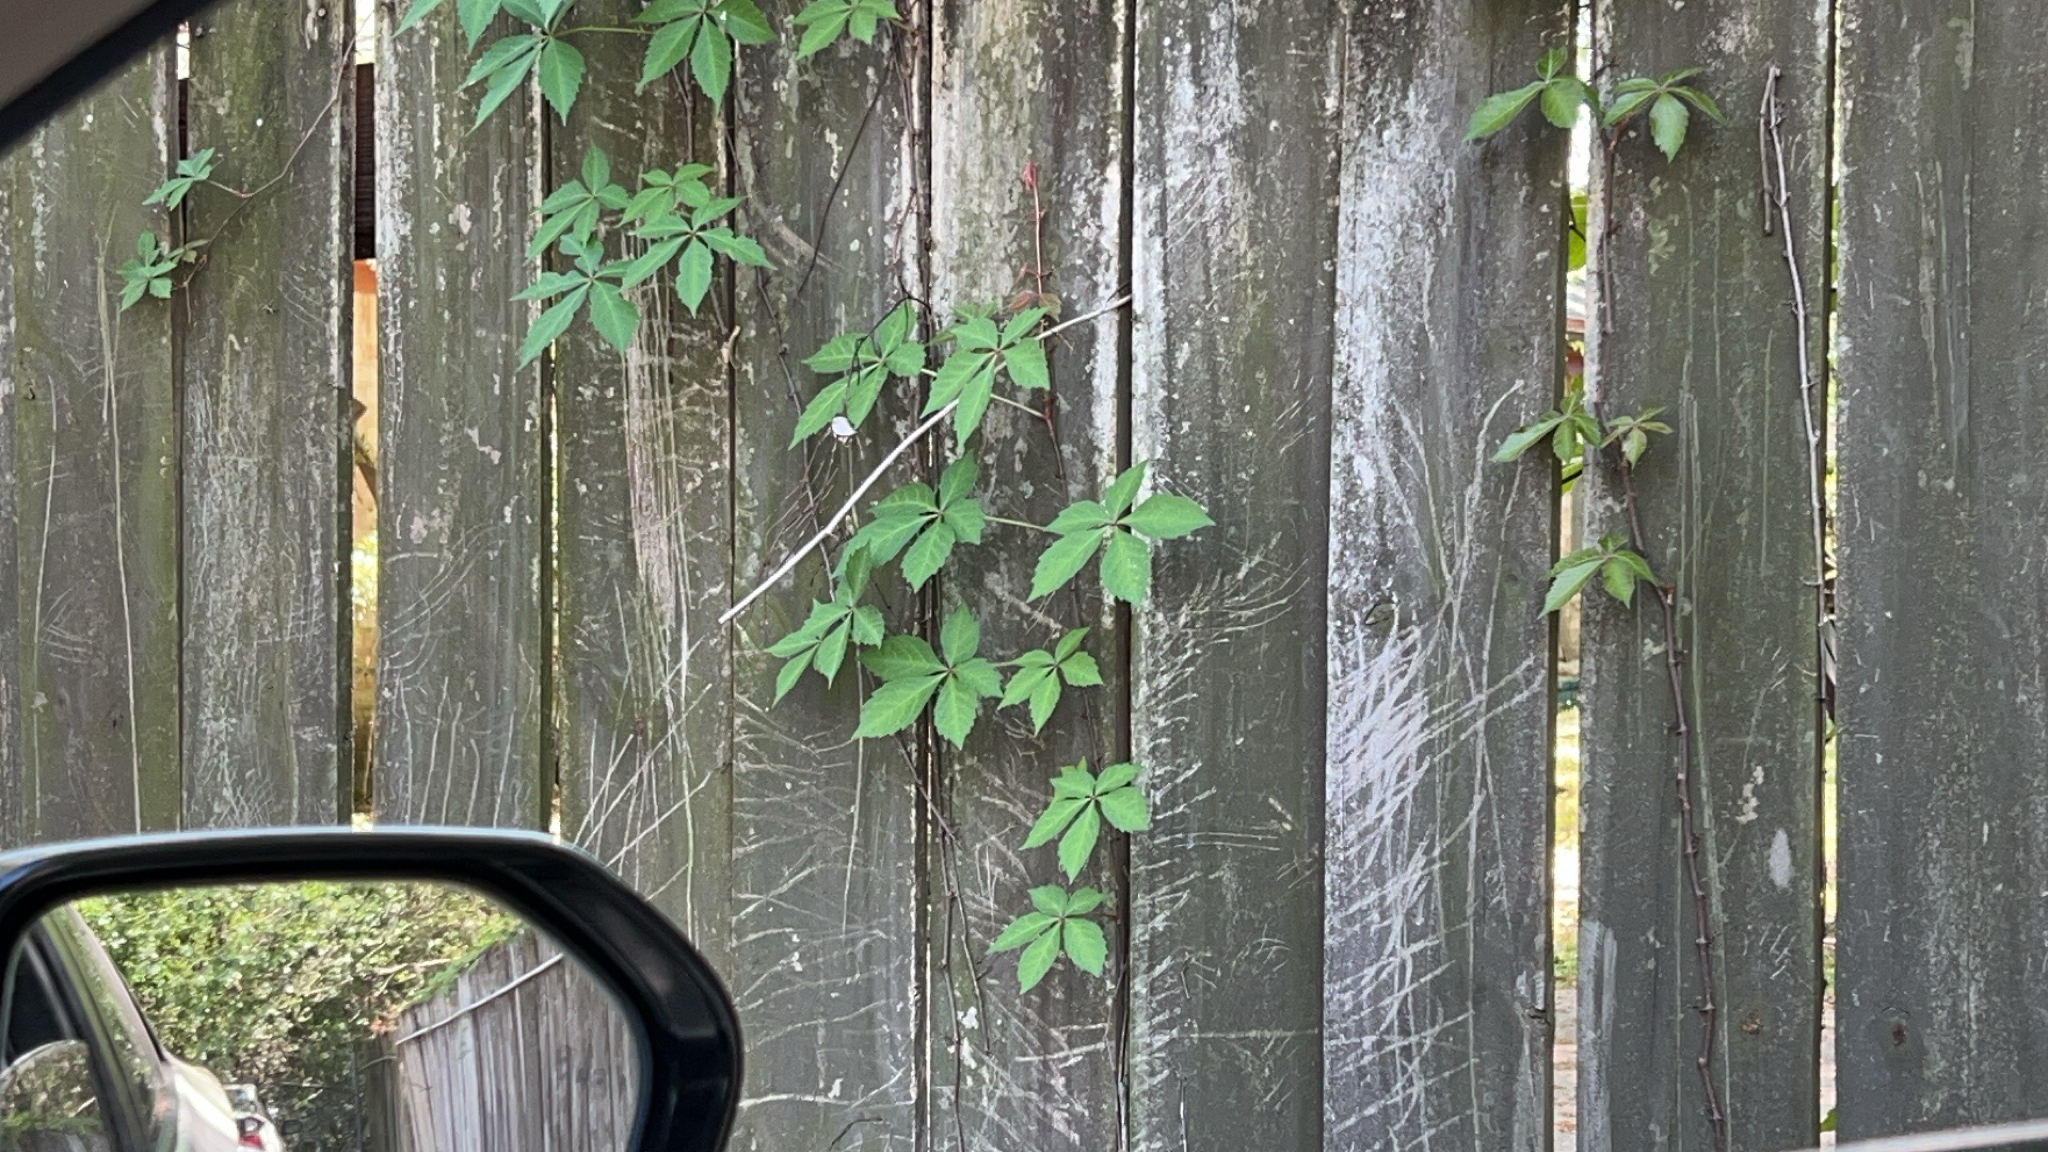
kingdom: Plantae
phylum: Tracheophyta
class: Magnoliopsida
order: Vitales
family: Vitaceae
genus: Parthenocissus
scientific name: Parthenocissus quinquefolia
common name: Virginia-creeper
